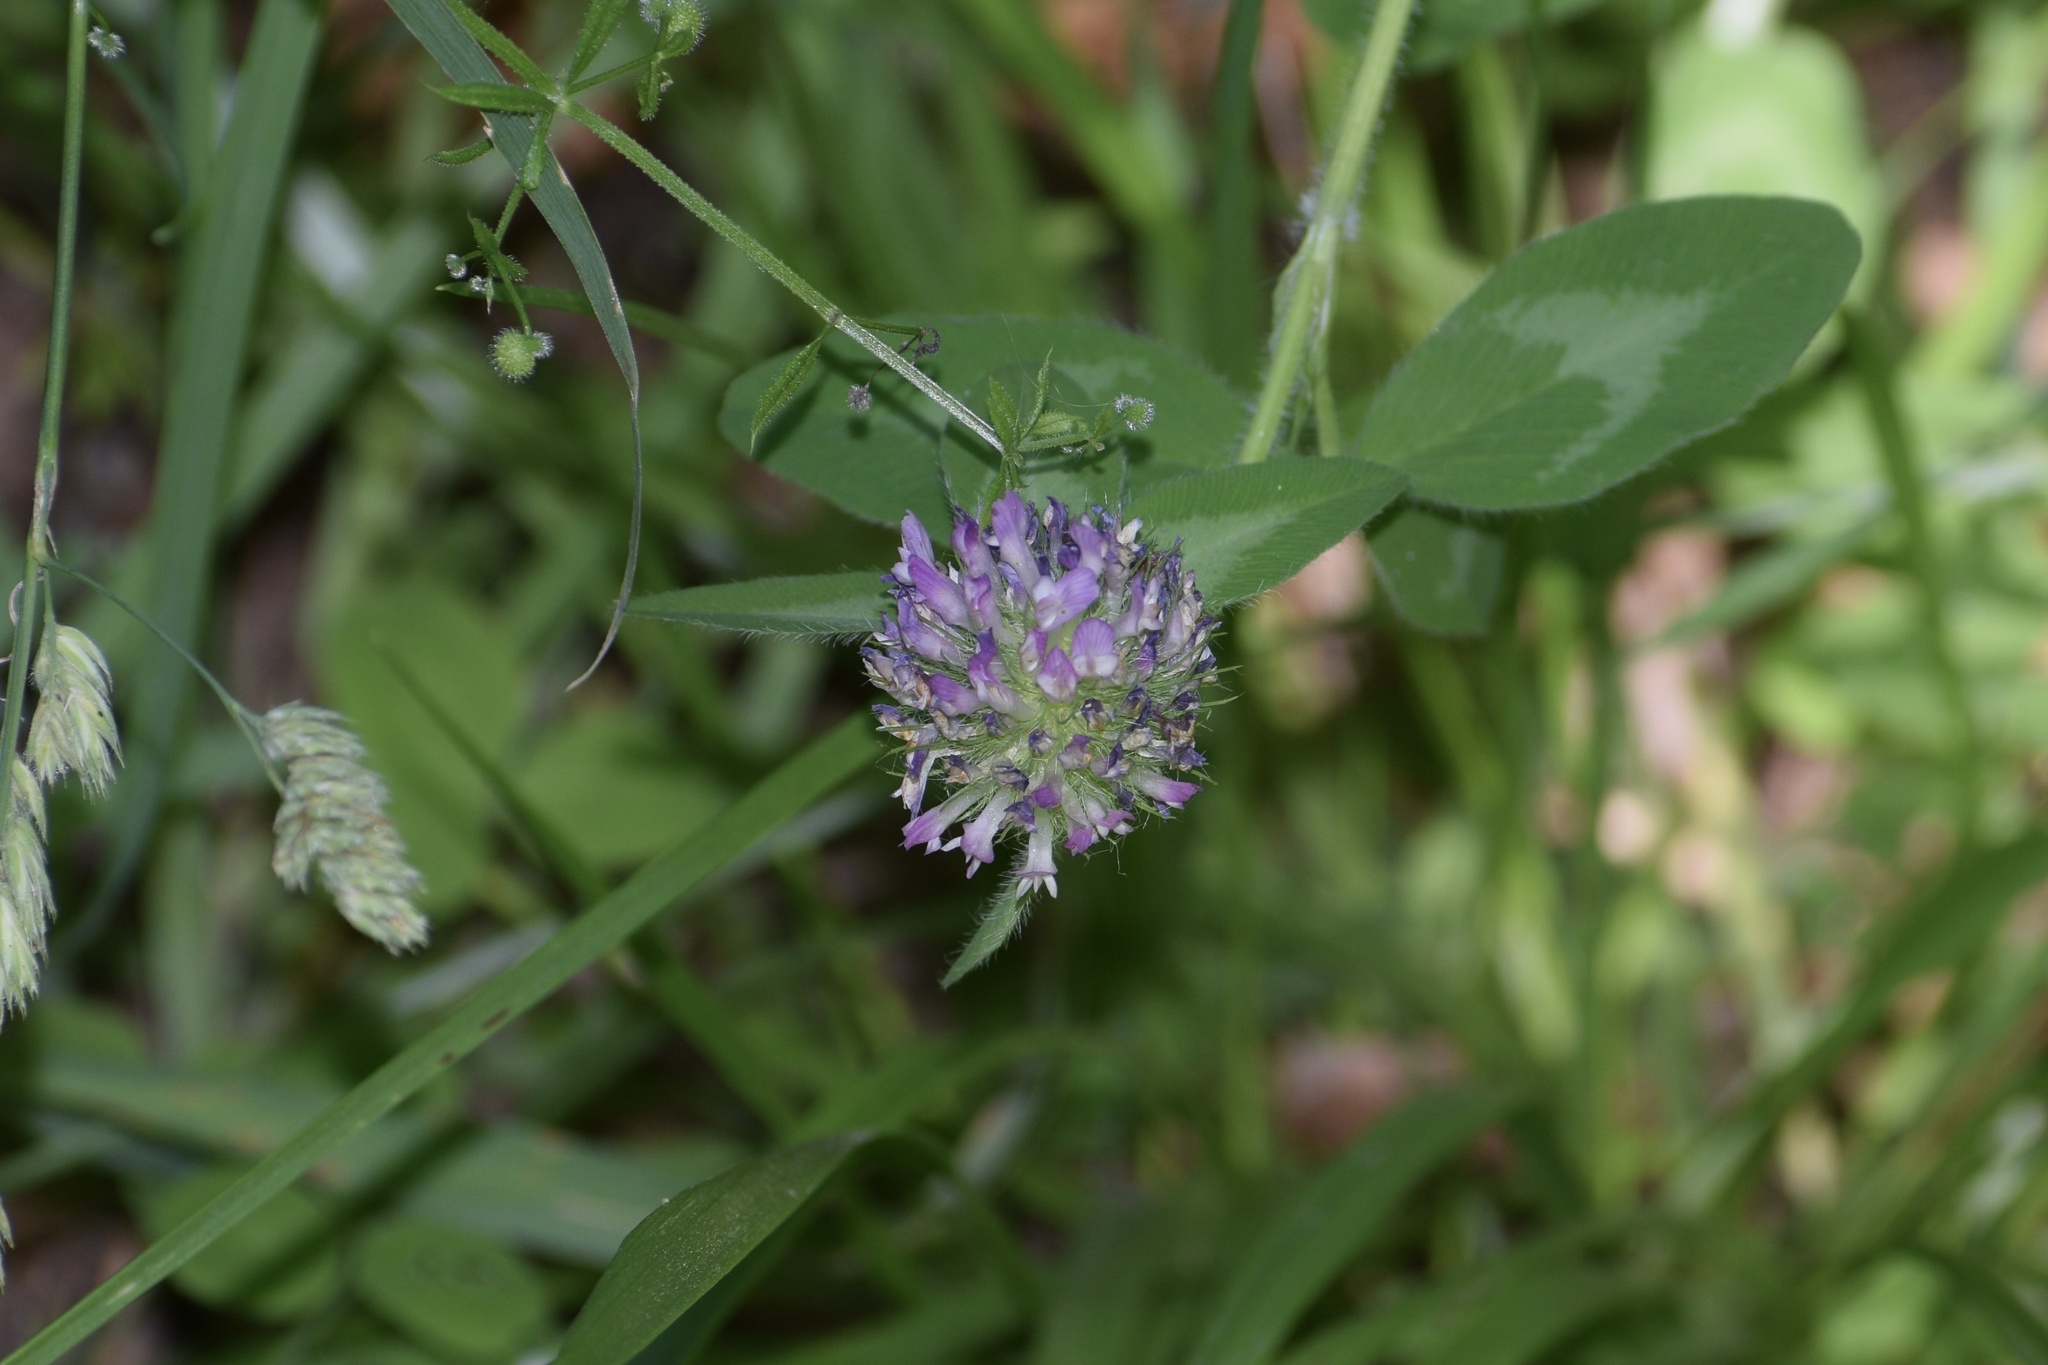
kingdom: Plantae
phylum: Tracheophyta
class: Magnoliopsida
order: Fabales
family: Fabaceae
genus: Trifolium
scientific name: Trifolium pratense
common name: Red clover
